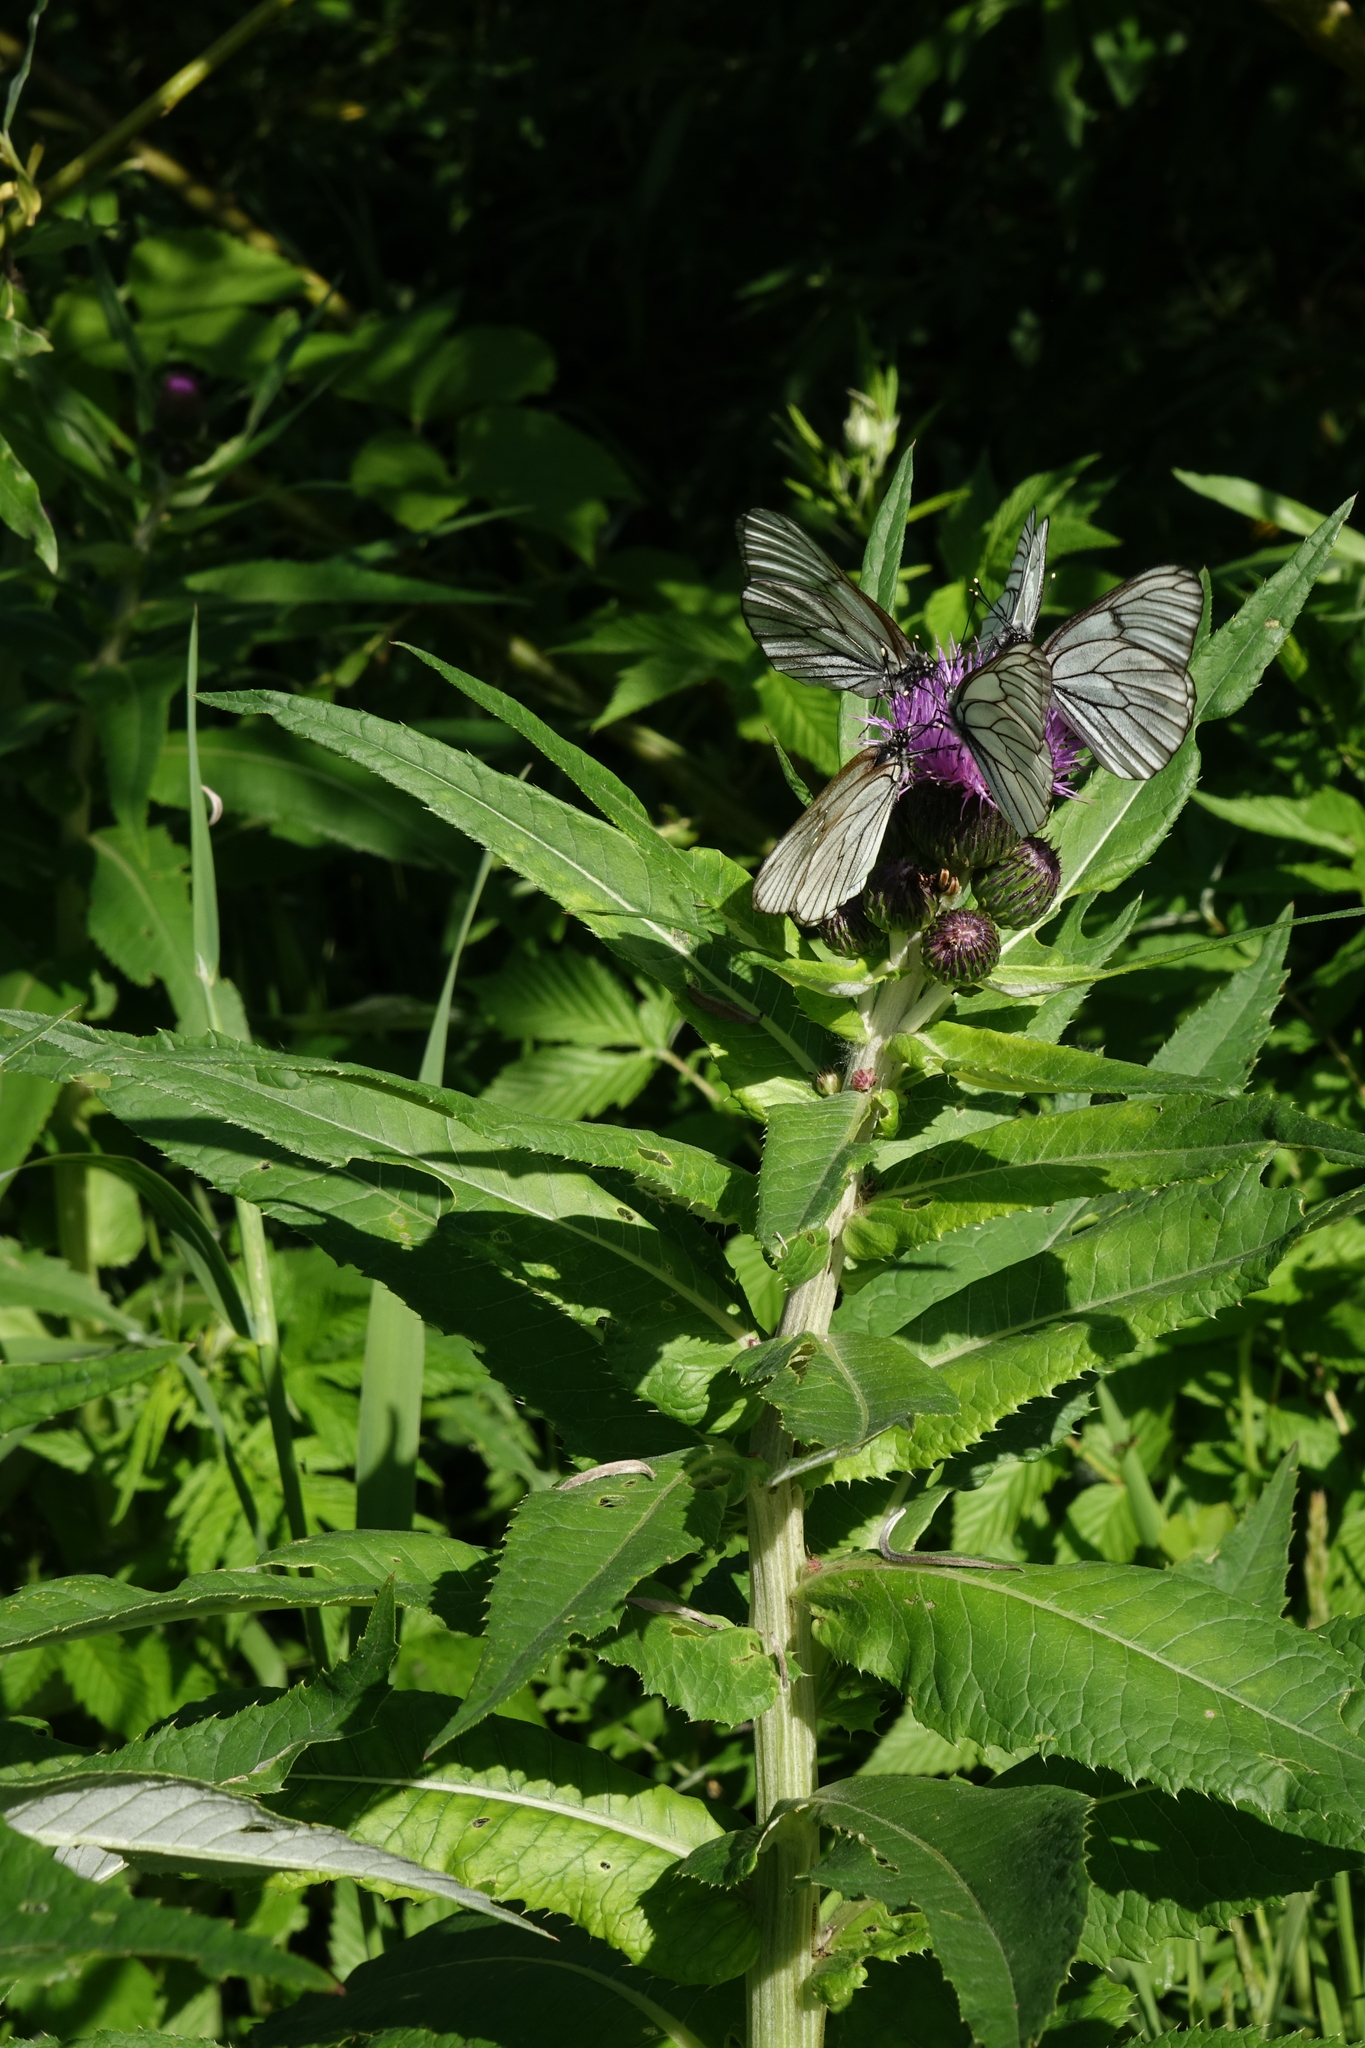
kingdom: Animalia
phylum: Arthropoda
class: Insecta
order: Lepidoptera
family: Pieridae
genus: Aporia
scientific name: Aporia crataegi
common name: Black-veined white
